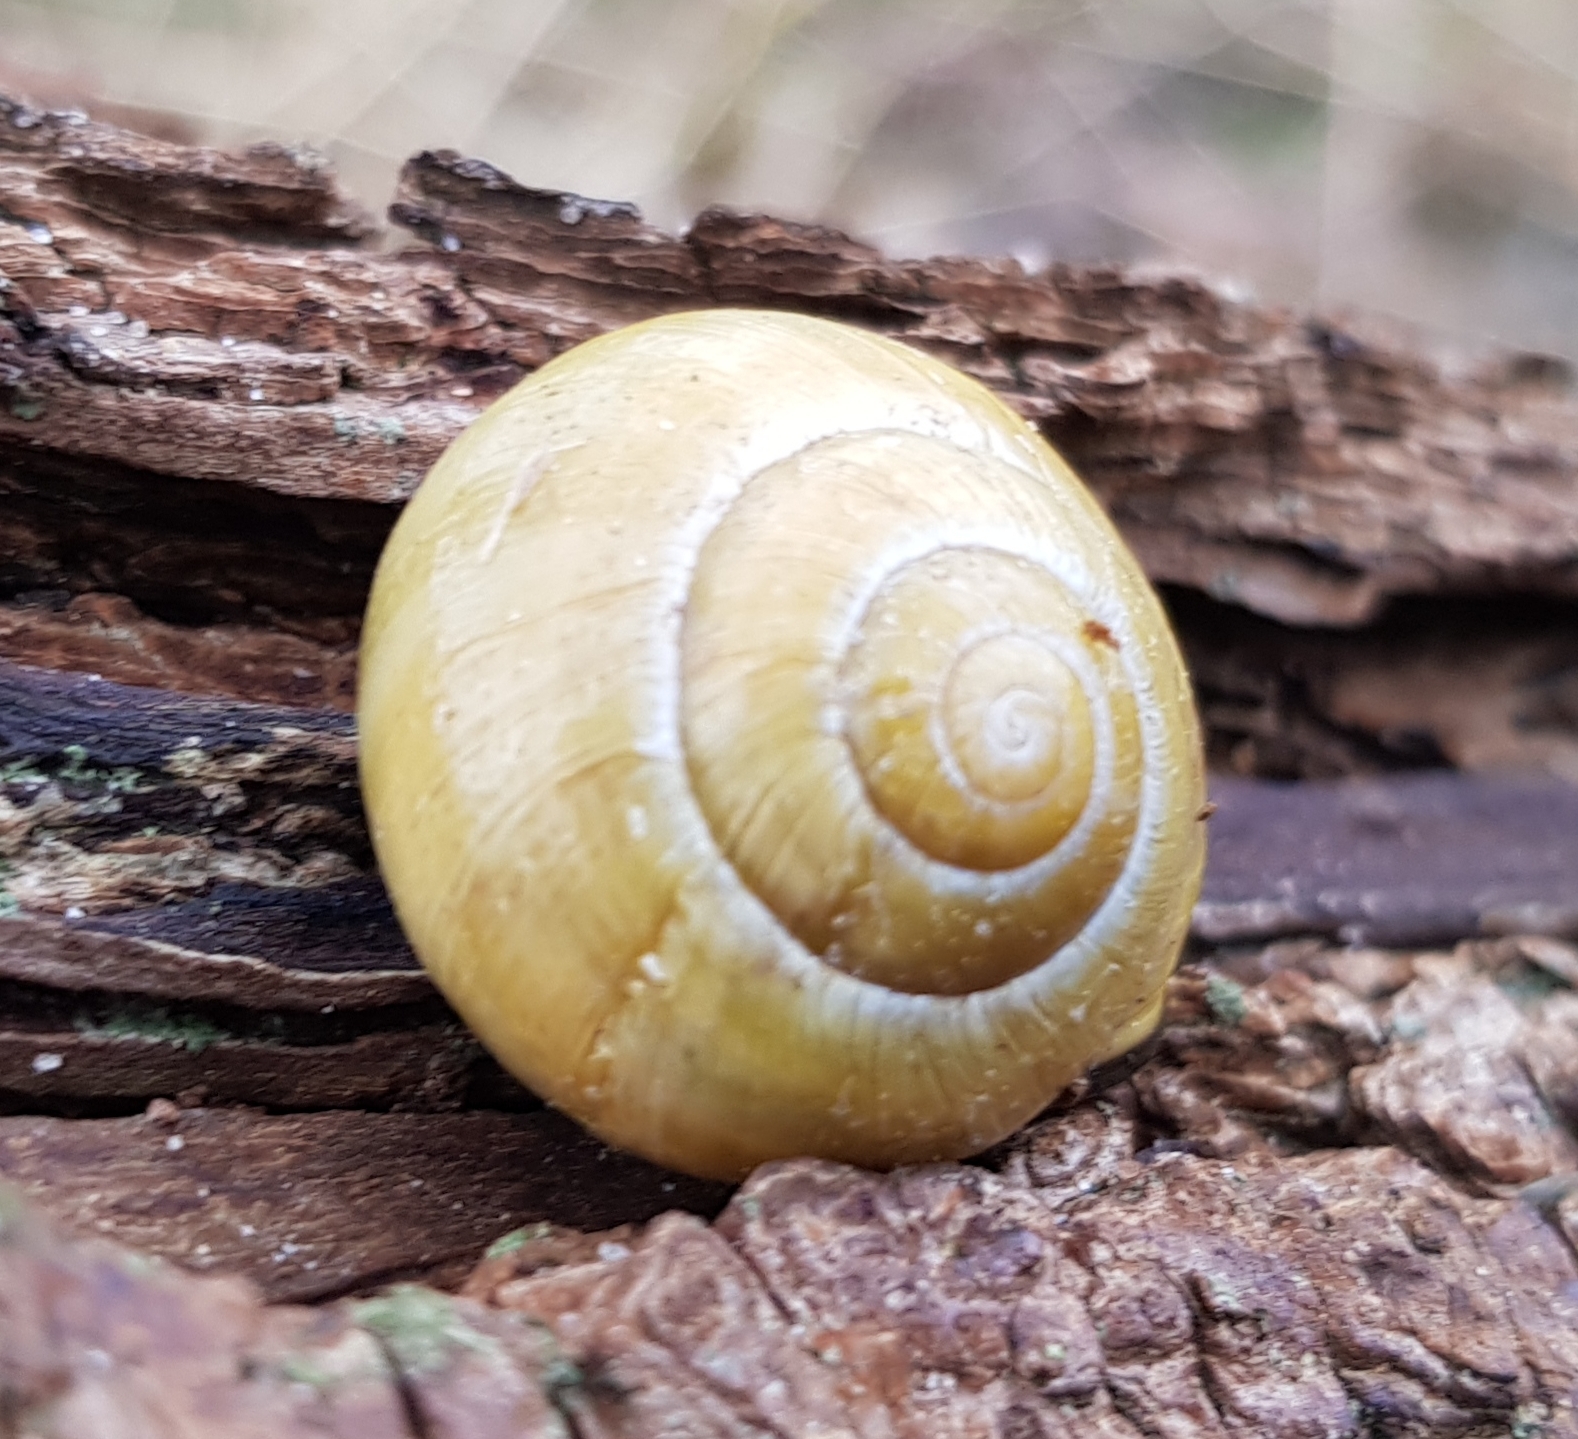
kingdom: Animalia
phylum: Mollusca
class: Gastropoda
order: Stylommatophora
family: Helicidae
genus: Cepaea
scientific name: Cepaea nemoralis
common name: Grovesnail
